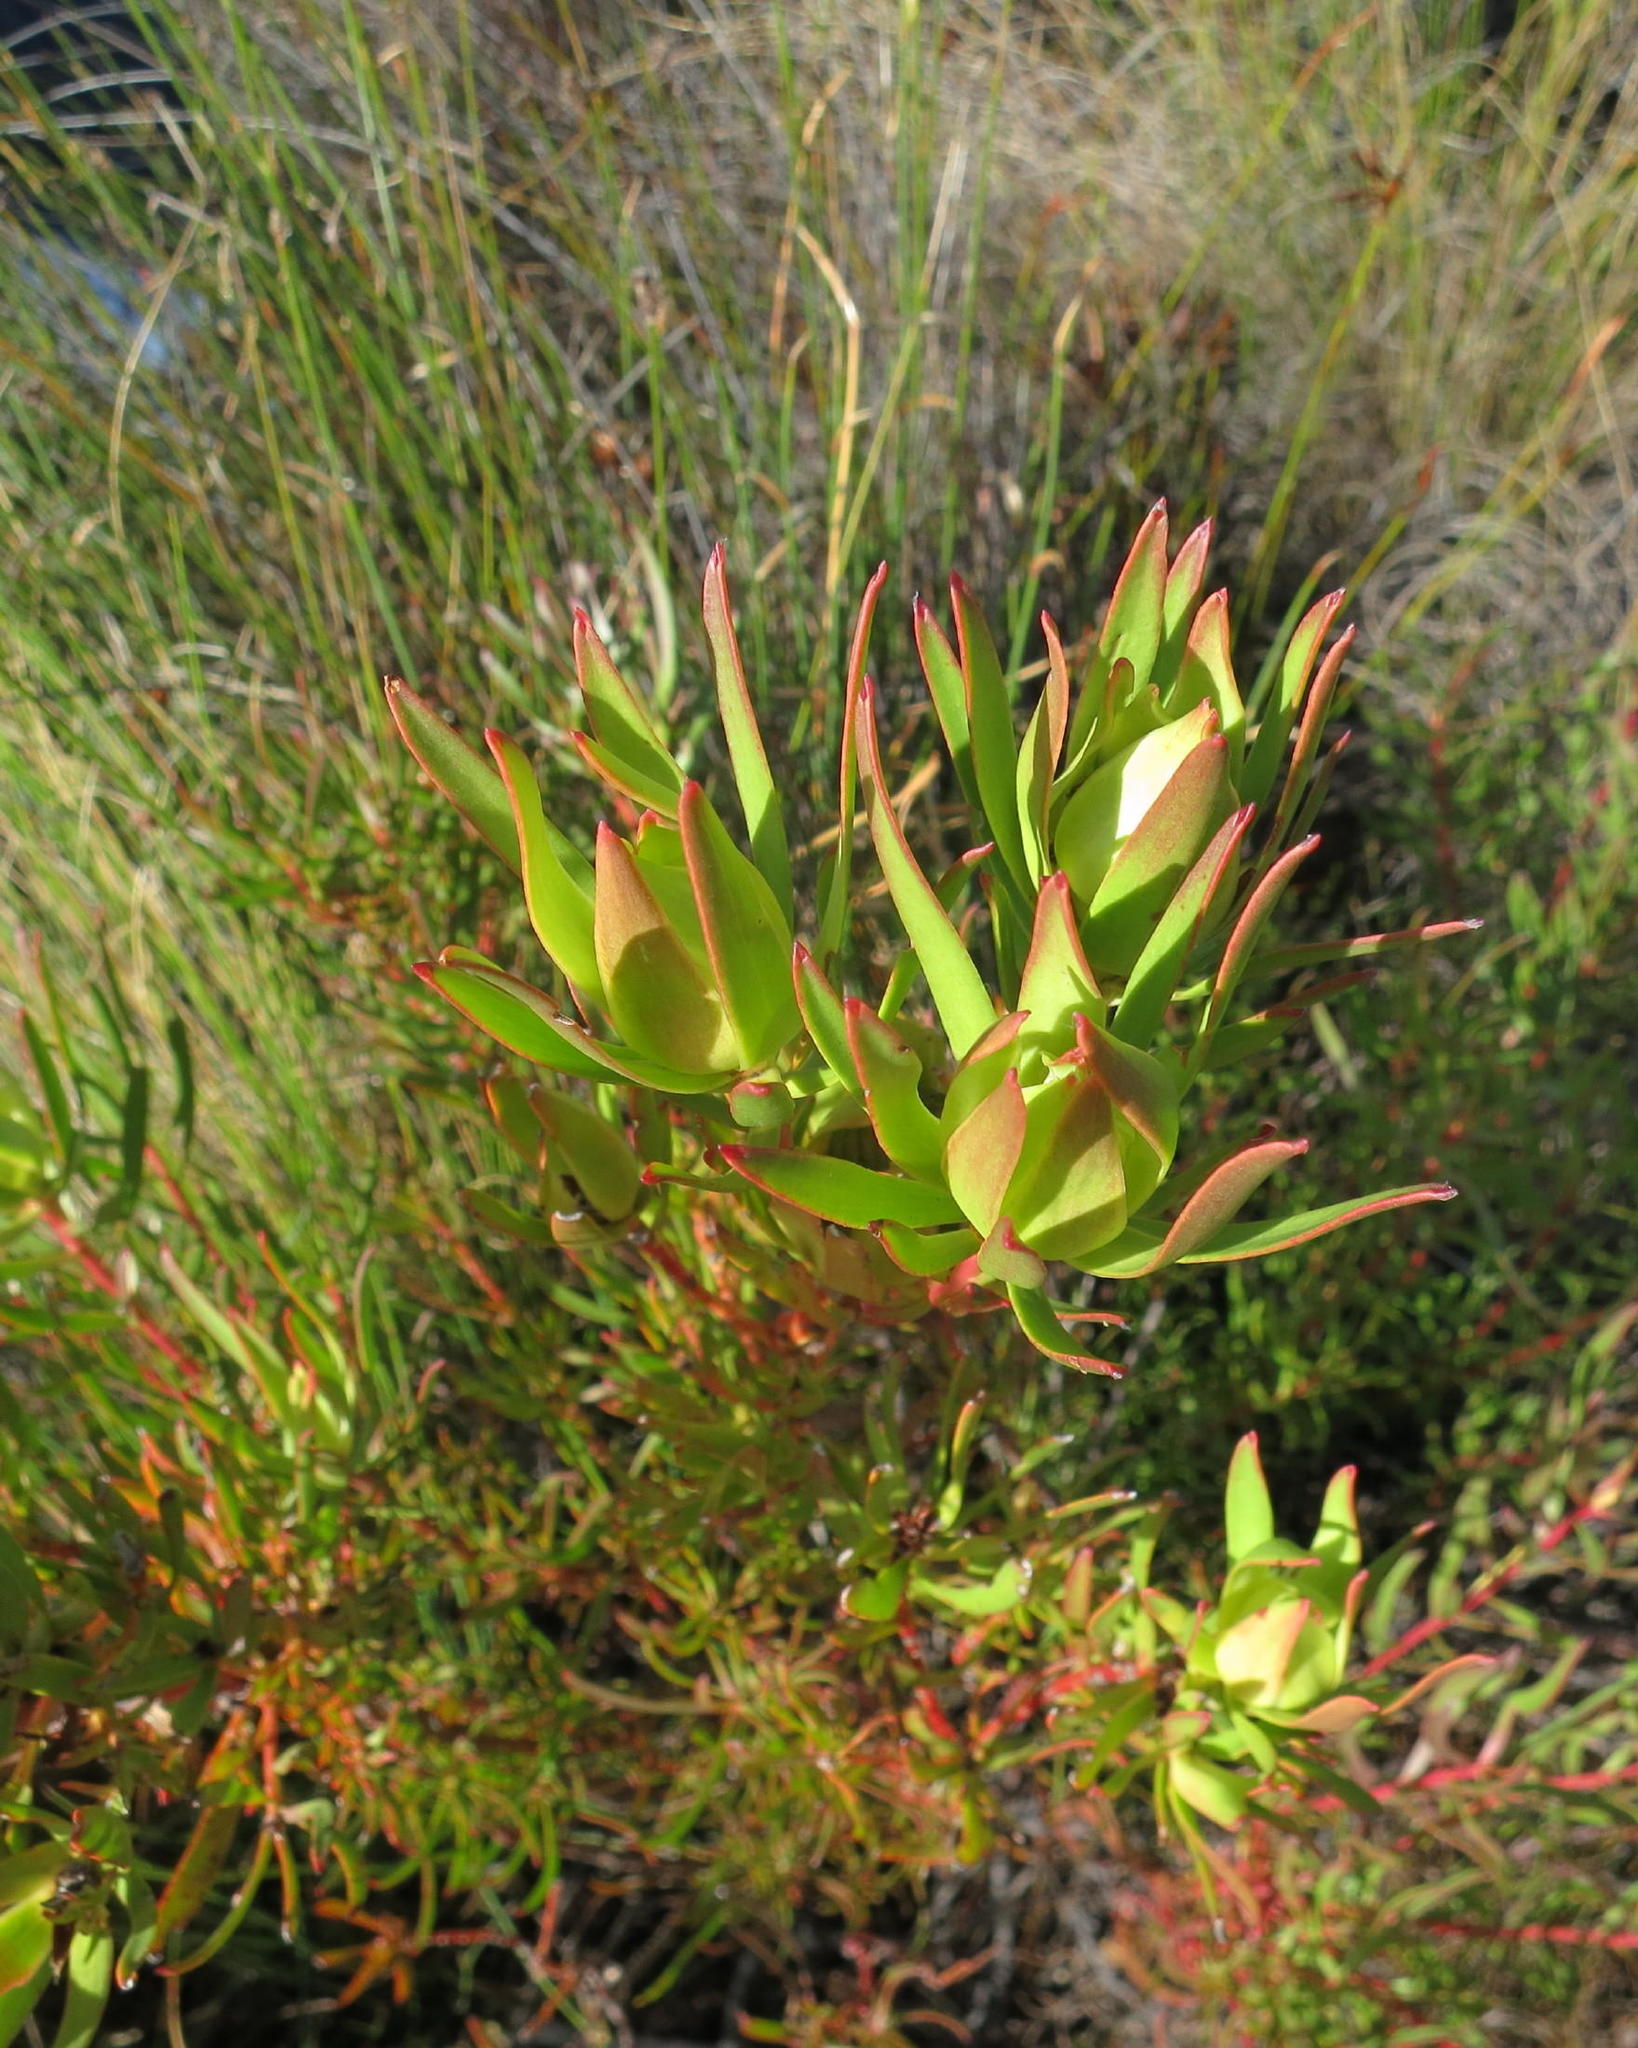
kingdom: Plantae
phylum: Tracheophyta
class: Magnoliopsida
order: Proteales
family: Proteaceae
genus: Leucadendron
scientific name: Leucadendron spissifolium
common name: Spear-leaf conebush
